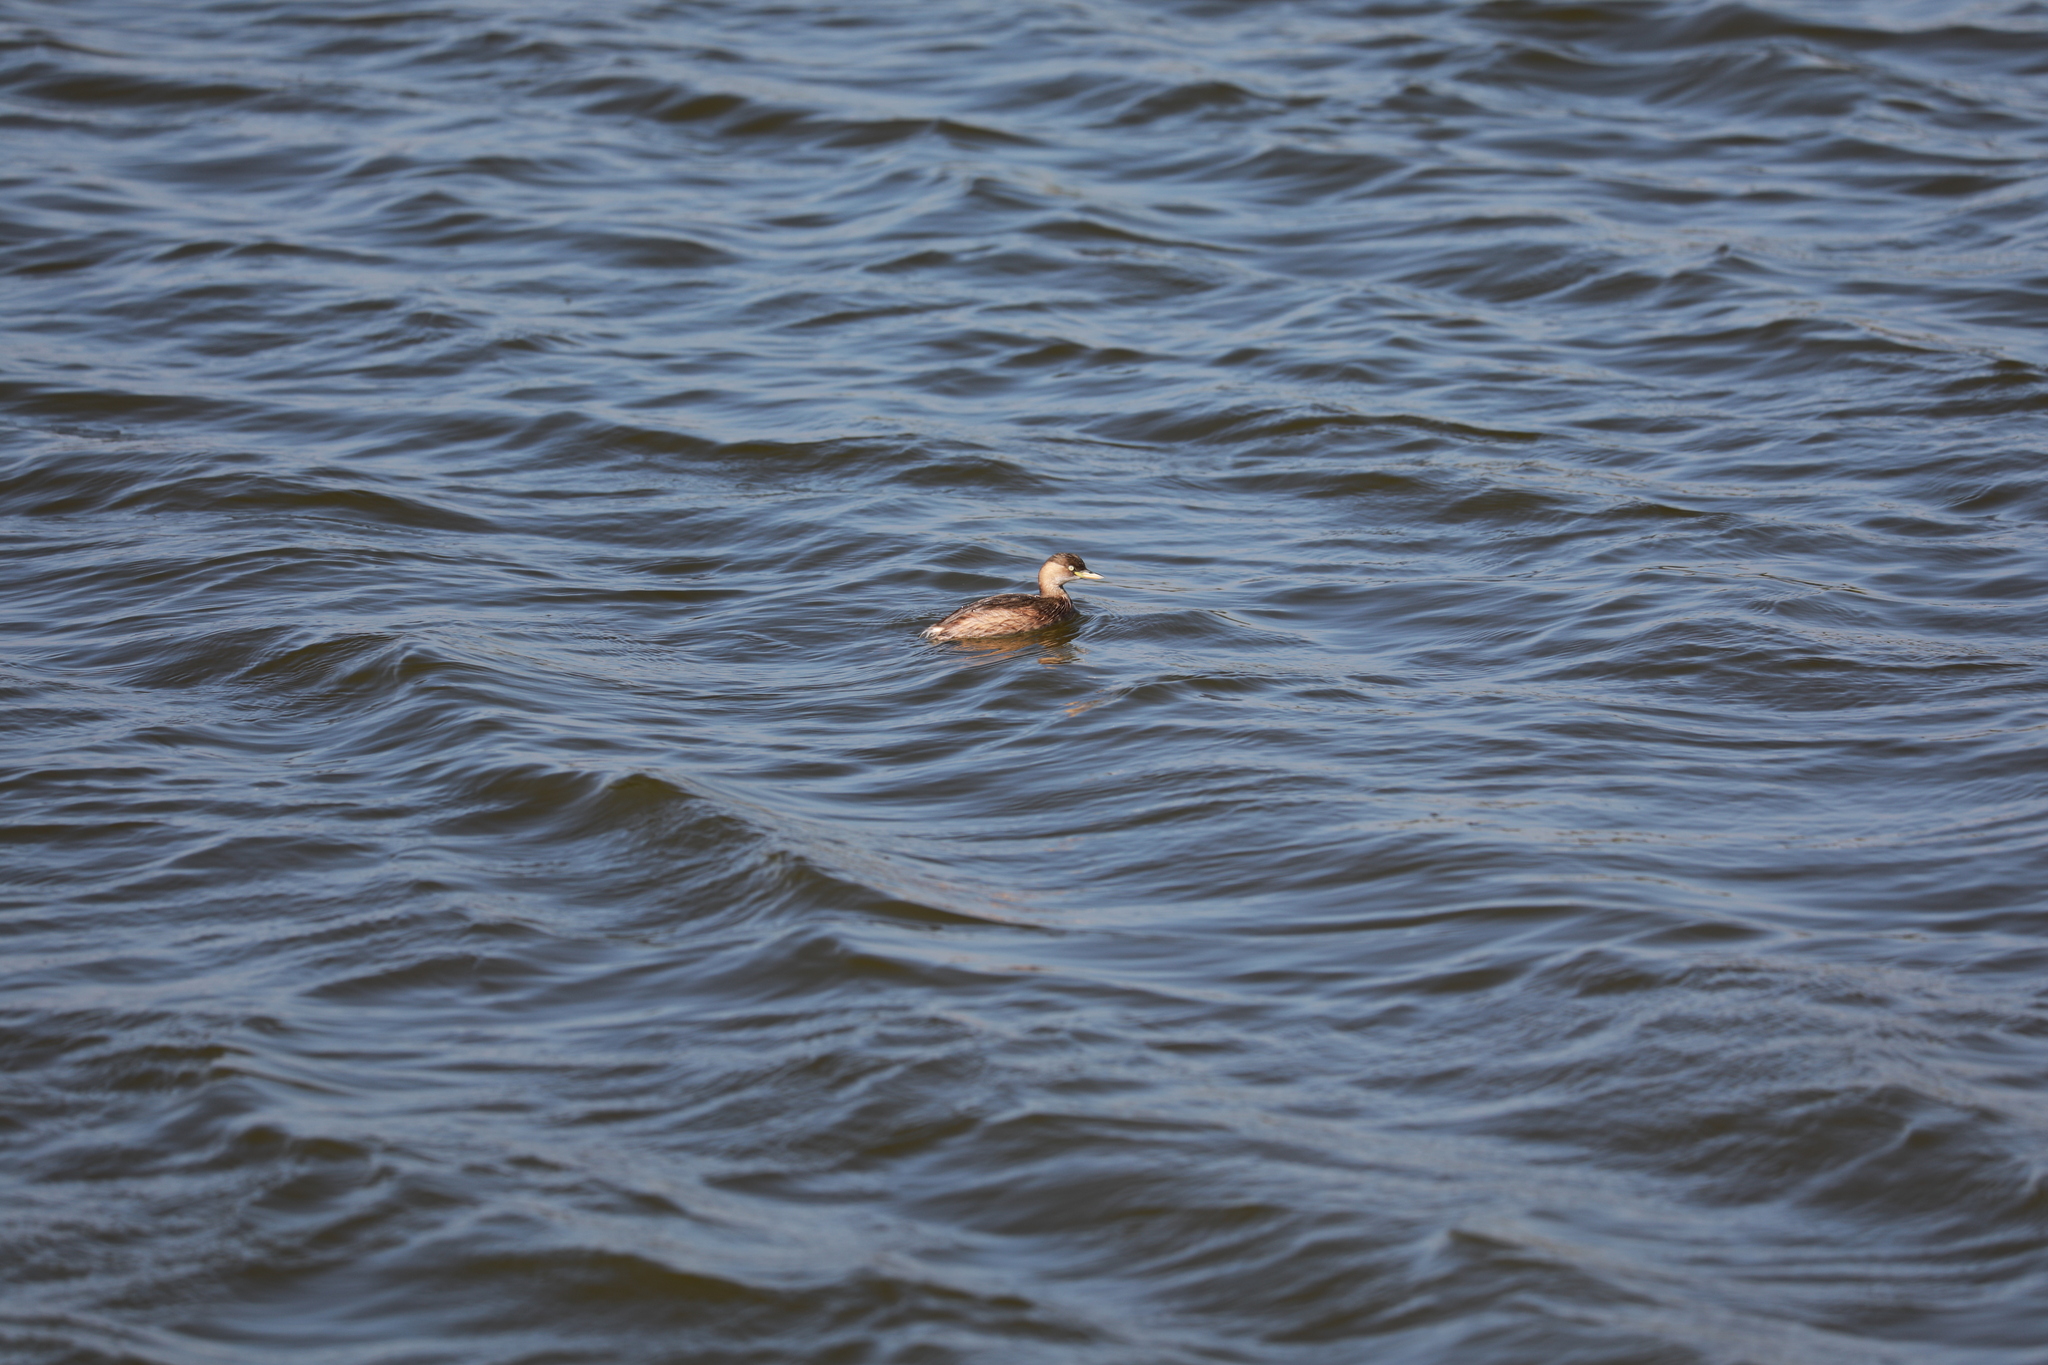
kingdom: Animalia
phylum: Chordata
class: Aves
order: Podicipediformes
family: Podicipedidae
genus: Tachybaptus
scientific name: Tachybaptus ruficollis
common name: Little grebe
